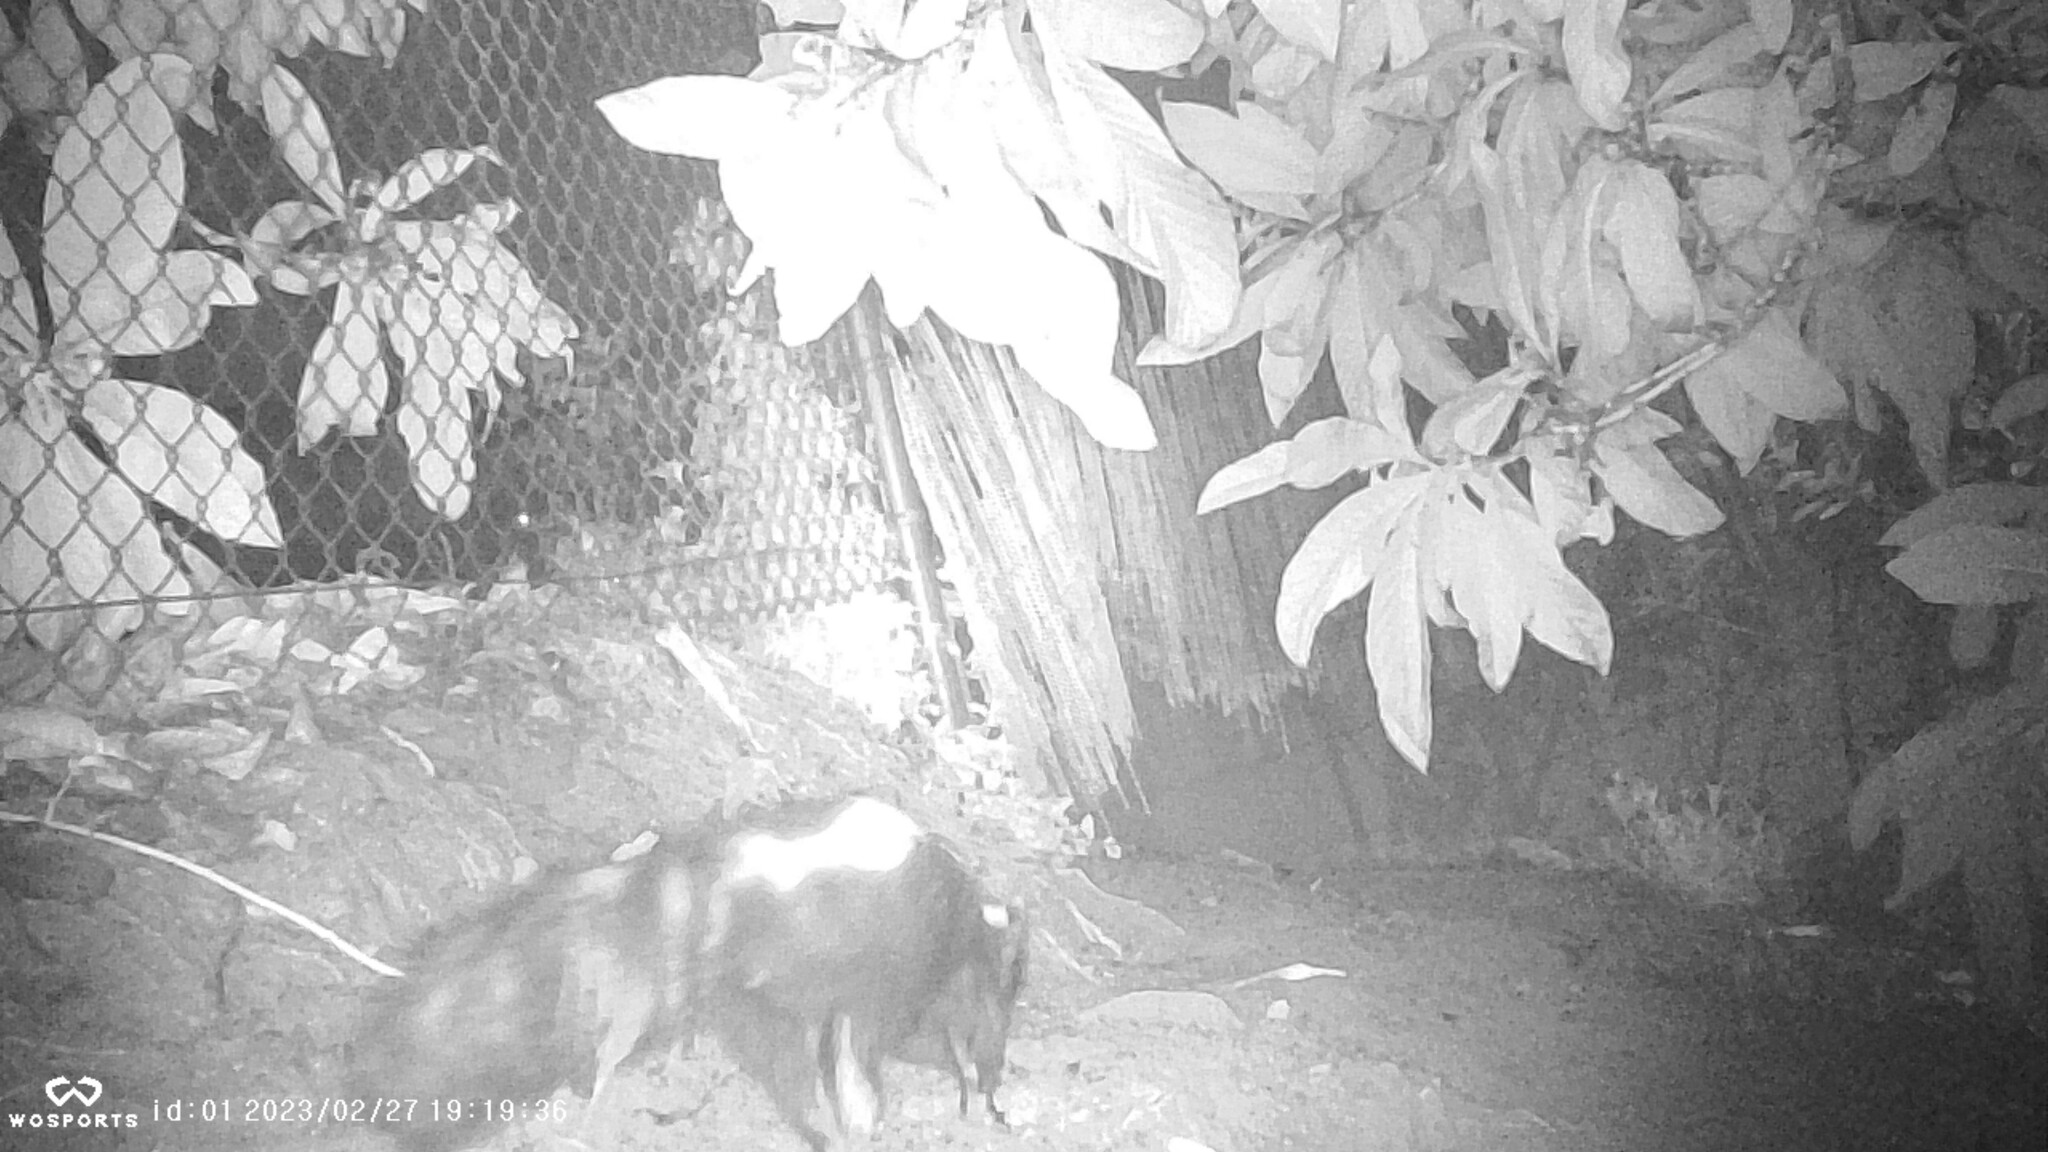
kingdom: Animalia
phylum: Chordata
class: Mammalia
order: Carnivora
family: Mephitidae
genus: Mephitis
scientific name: Mephitis mephitis
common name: Striped skunk
